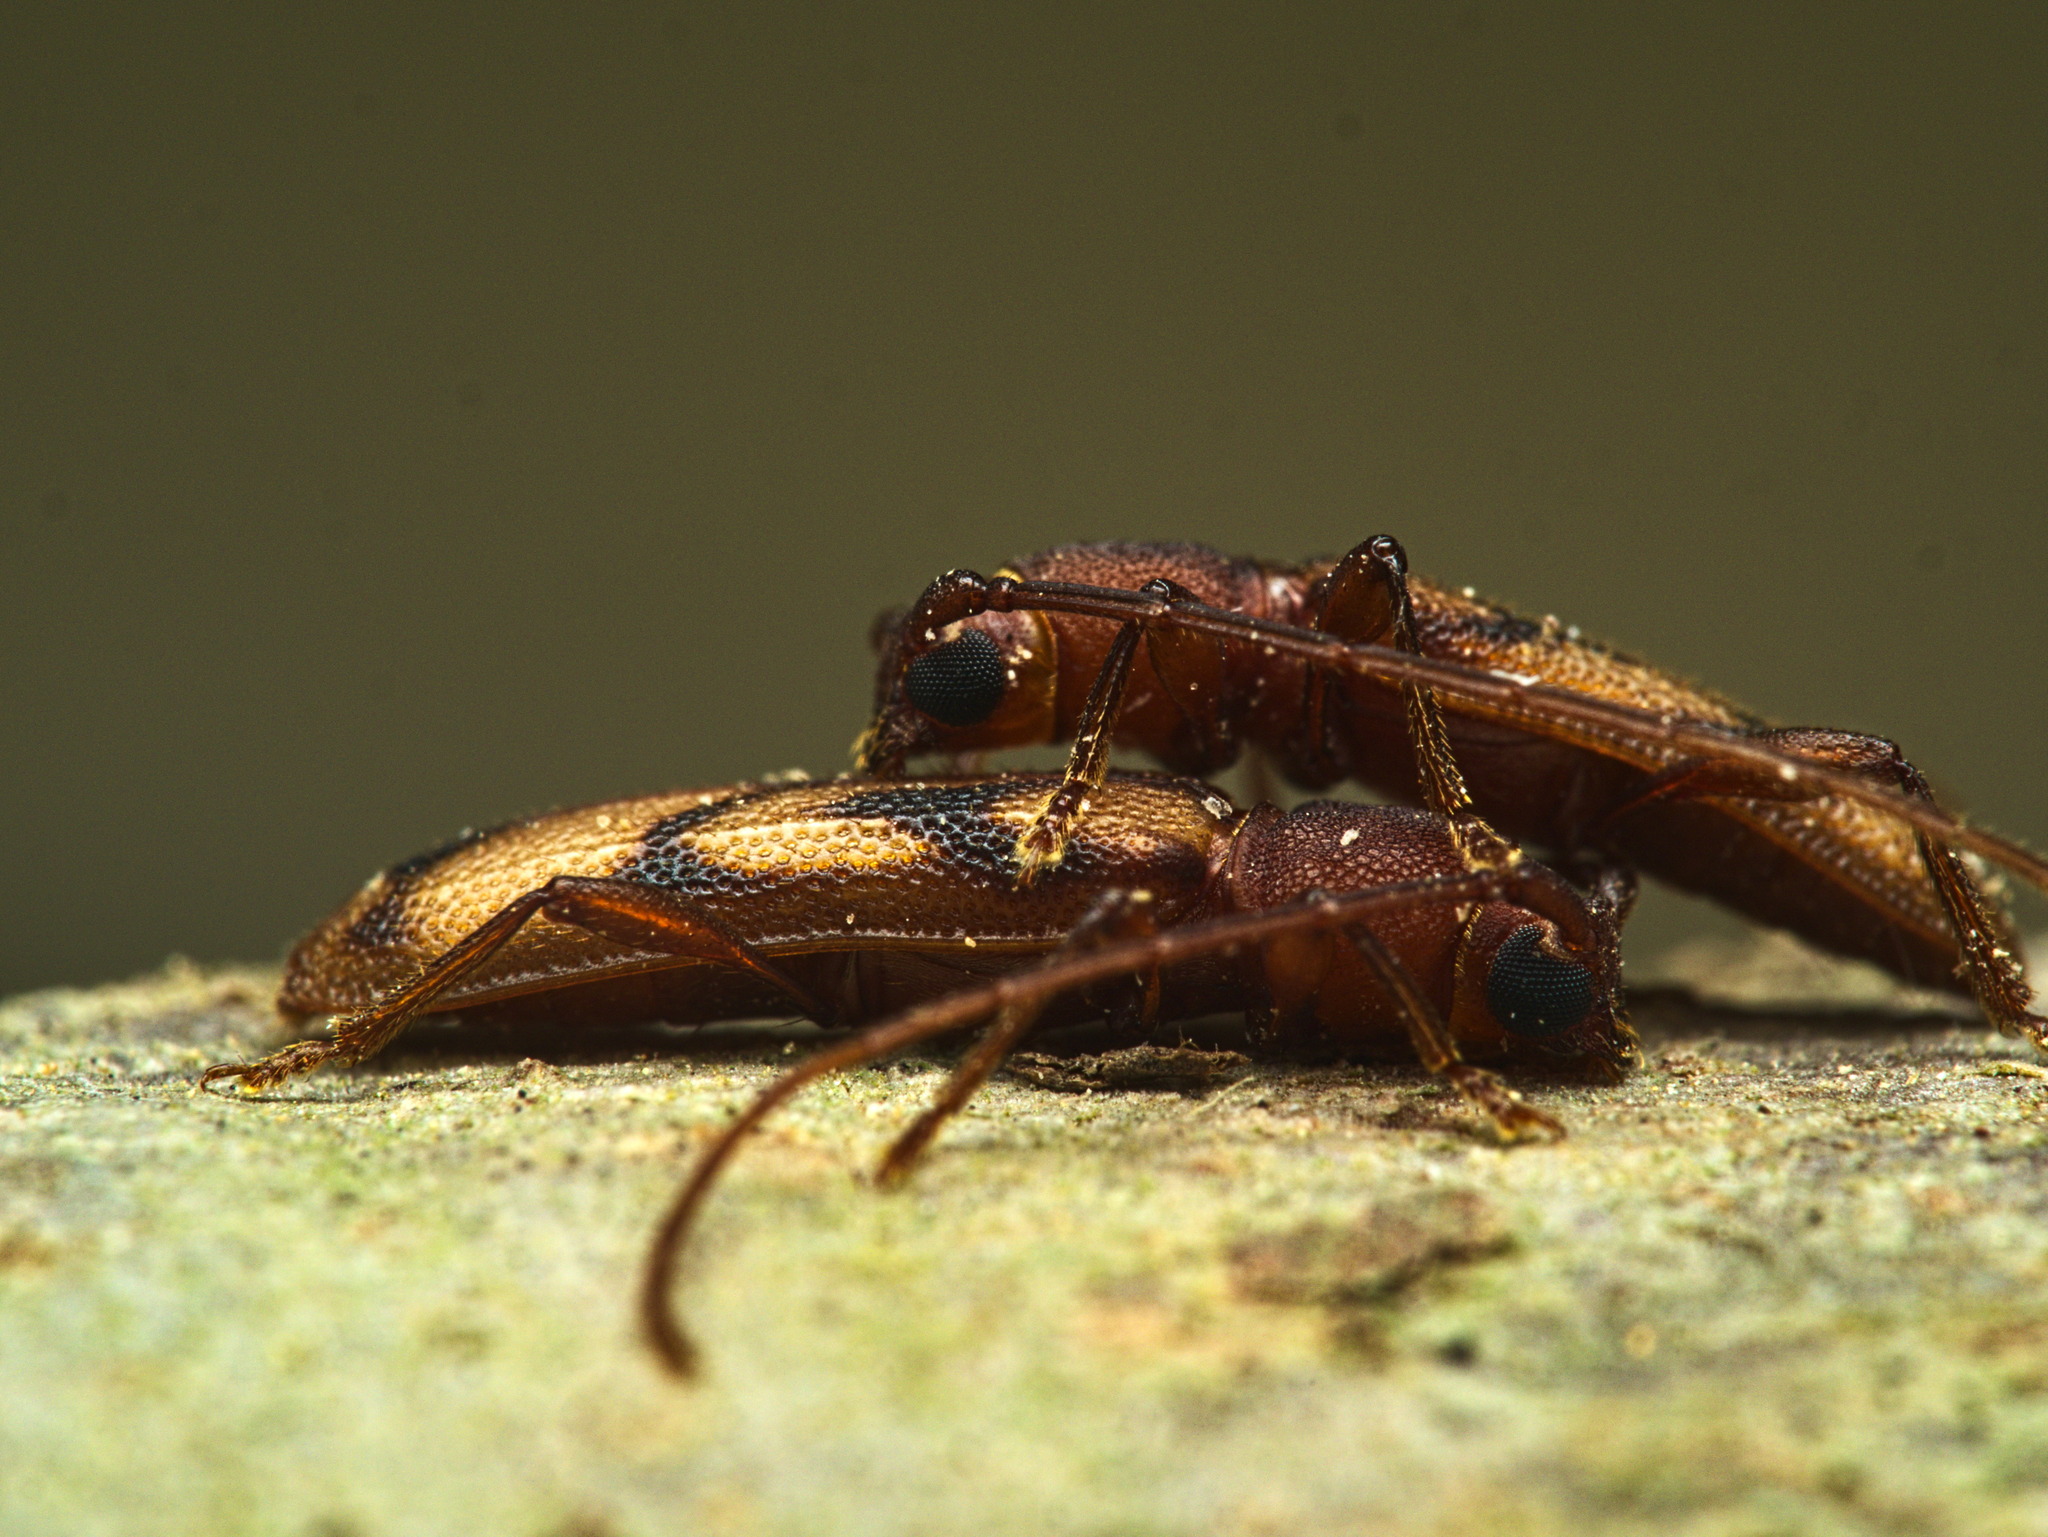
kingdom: Animalia
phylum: Arthropoda
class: Insecta
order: Coleoptera
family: Cerambycidae
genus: Haruspex
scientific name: Haruspex inscriptus
